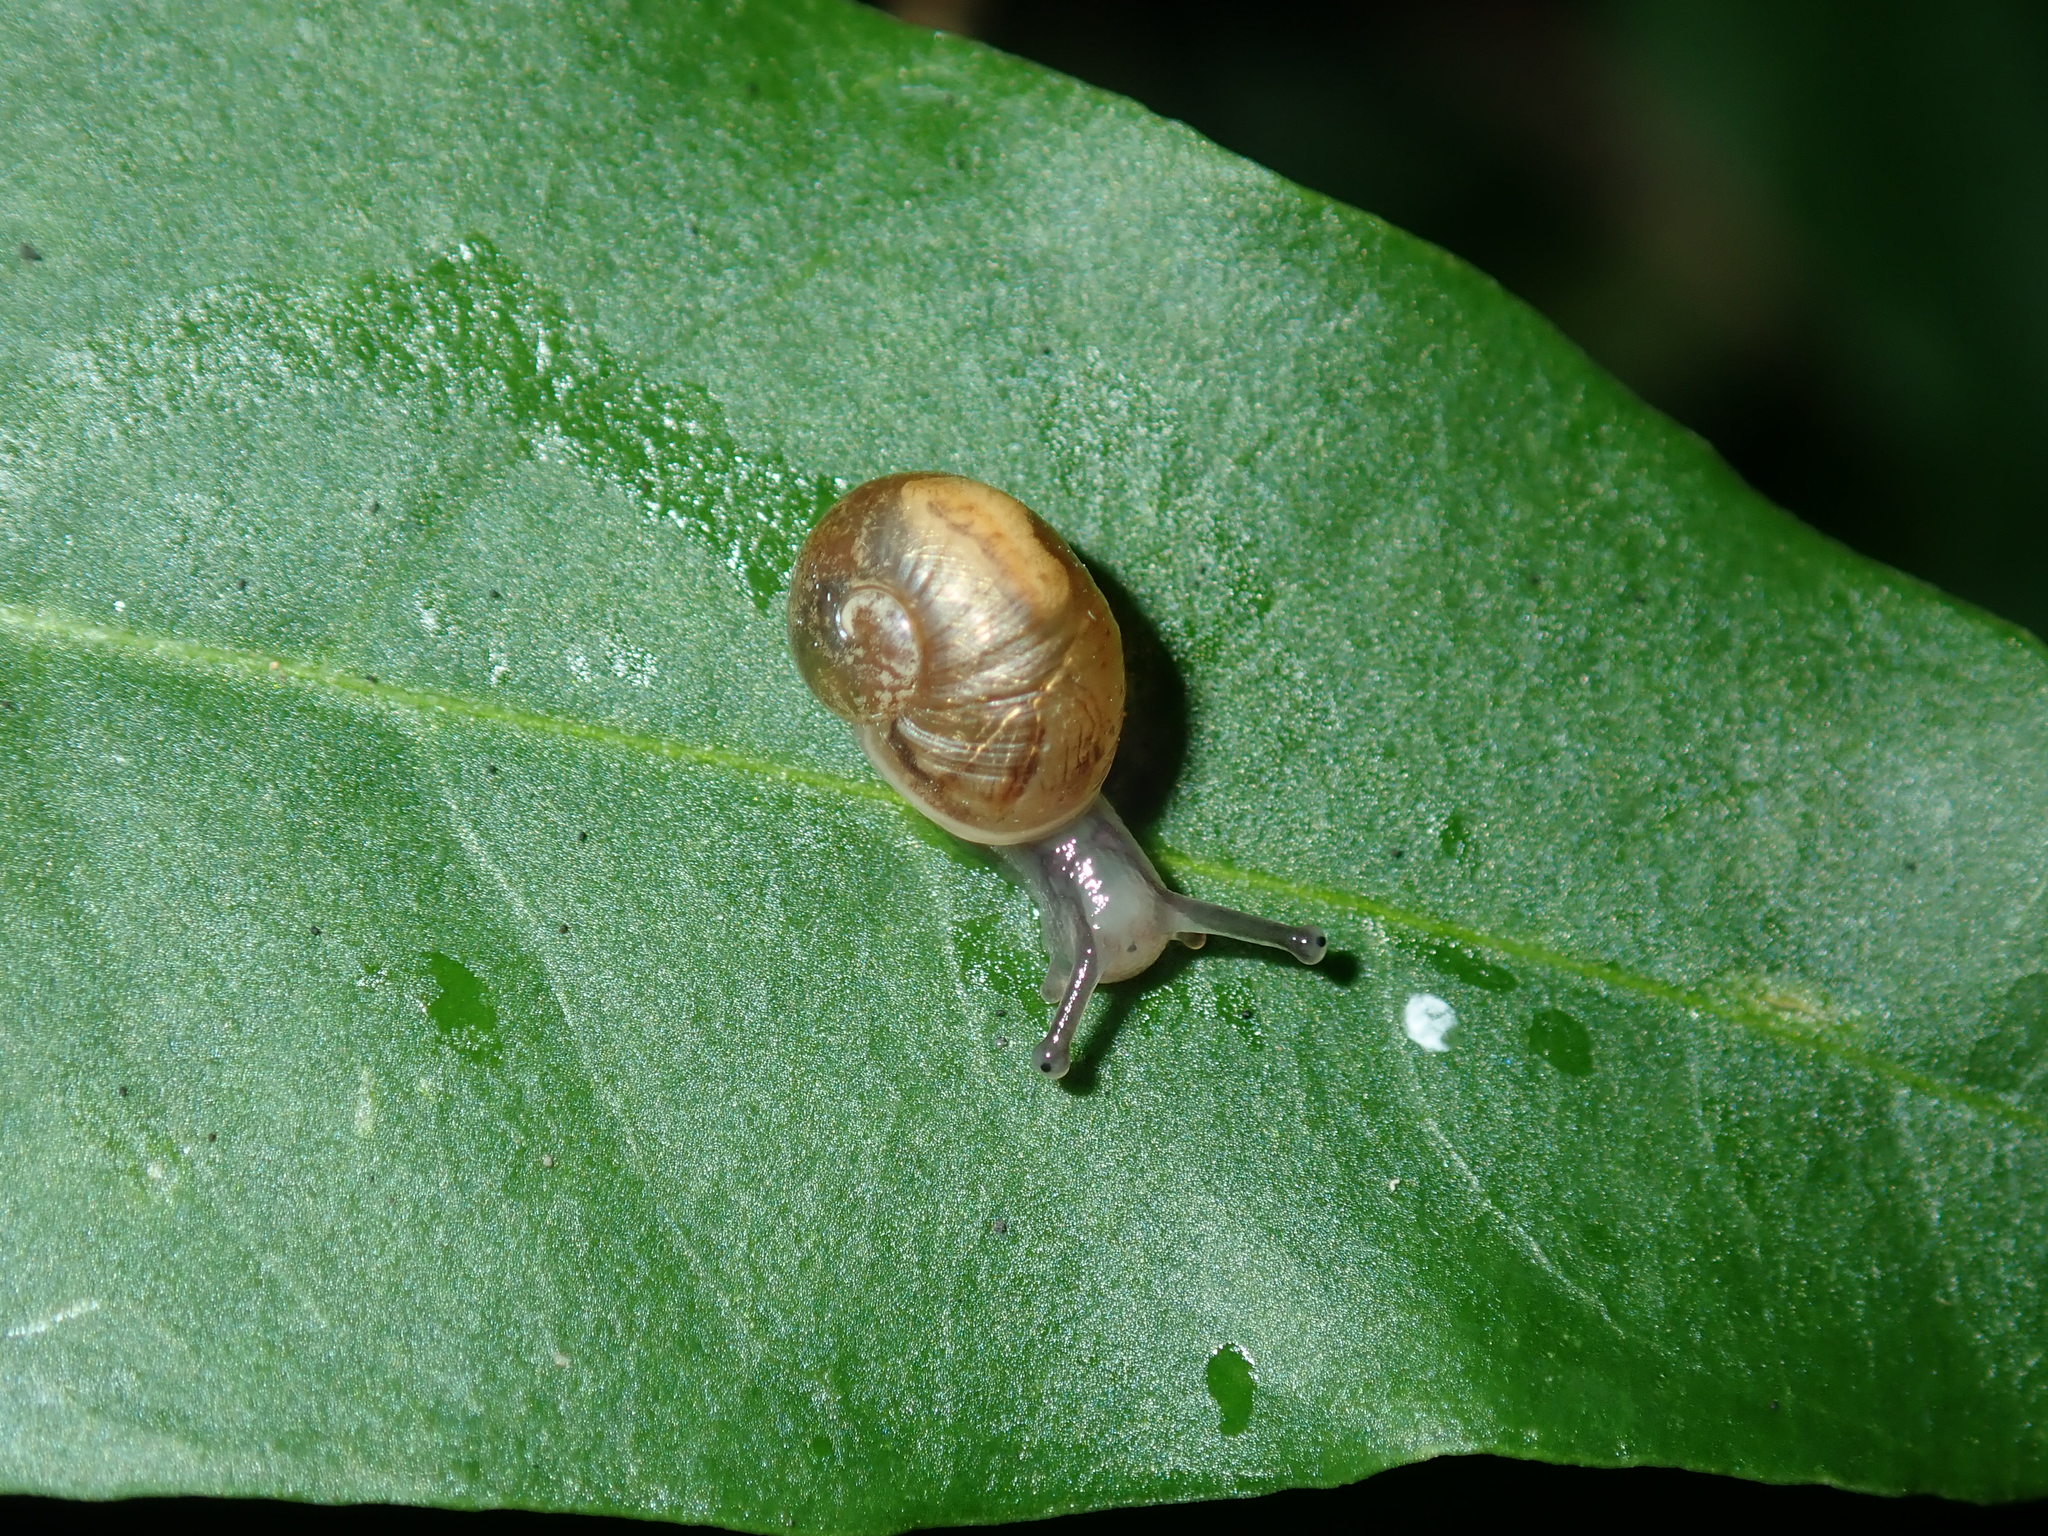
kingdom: Animalia
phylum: Mollusca
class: Gastropoda
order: Stylommatophora
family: Helicidae
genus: Cornu
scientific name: Cornu aspersum
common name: Brown garden snail
